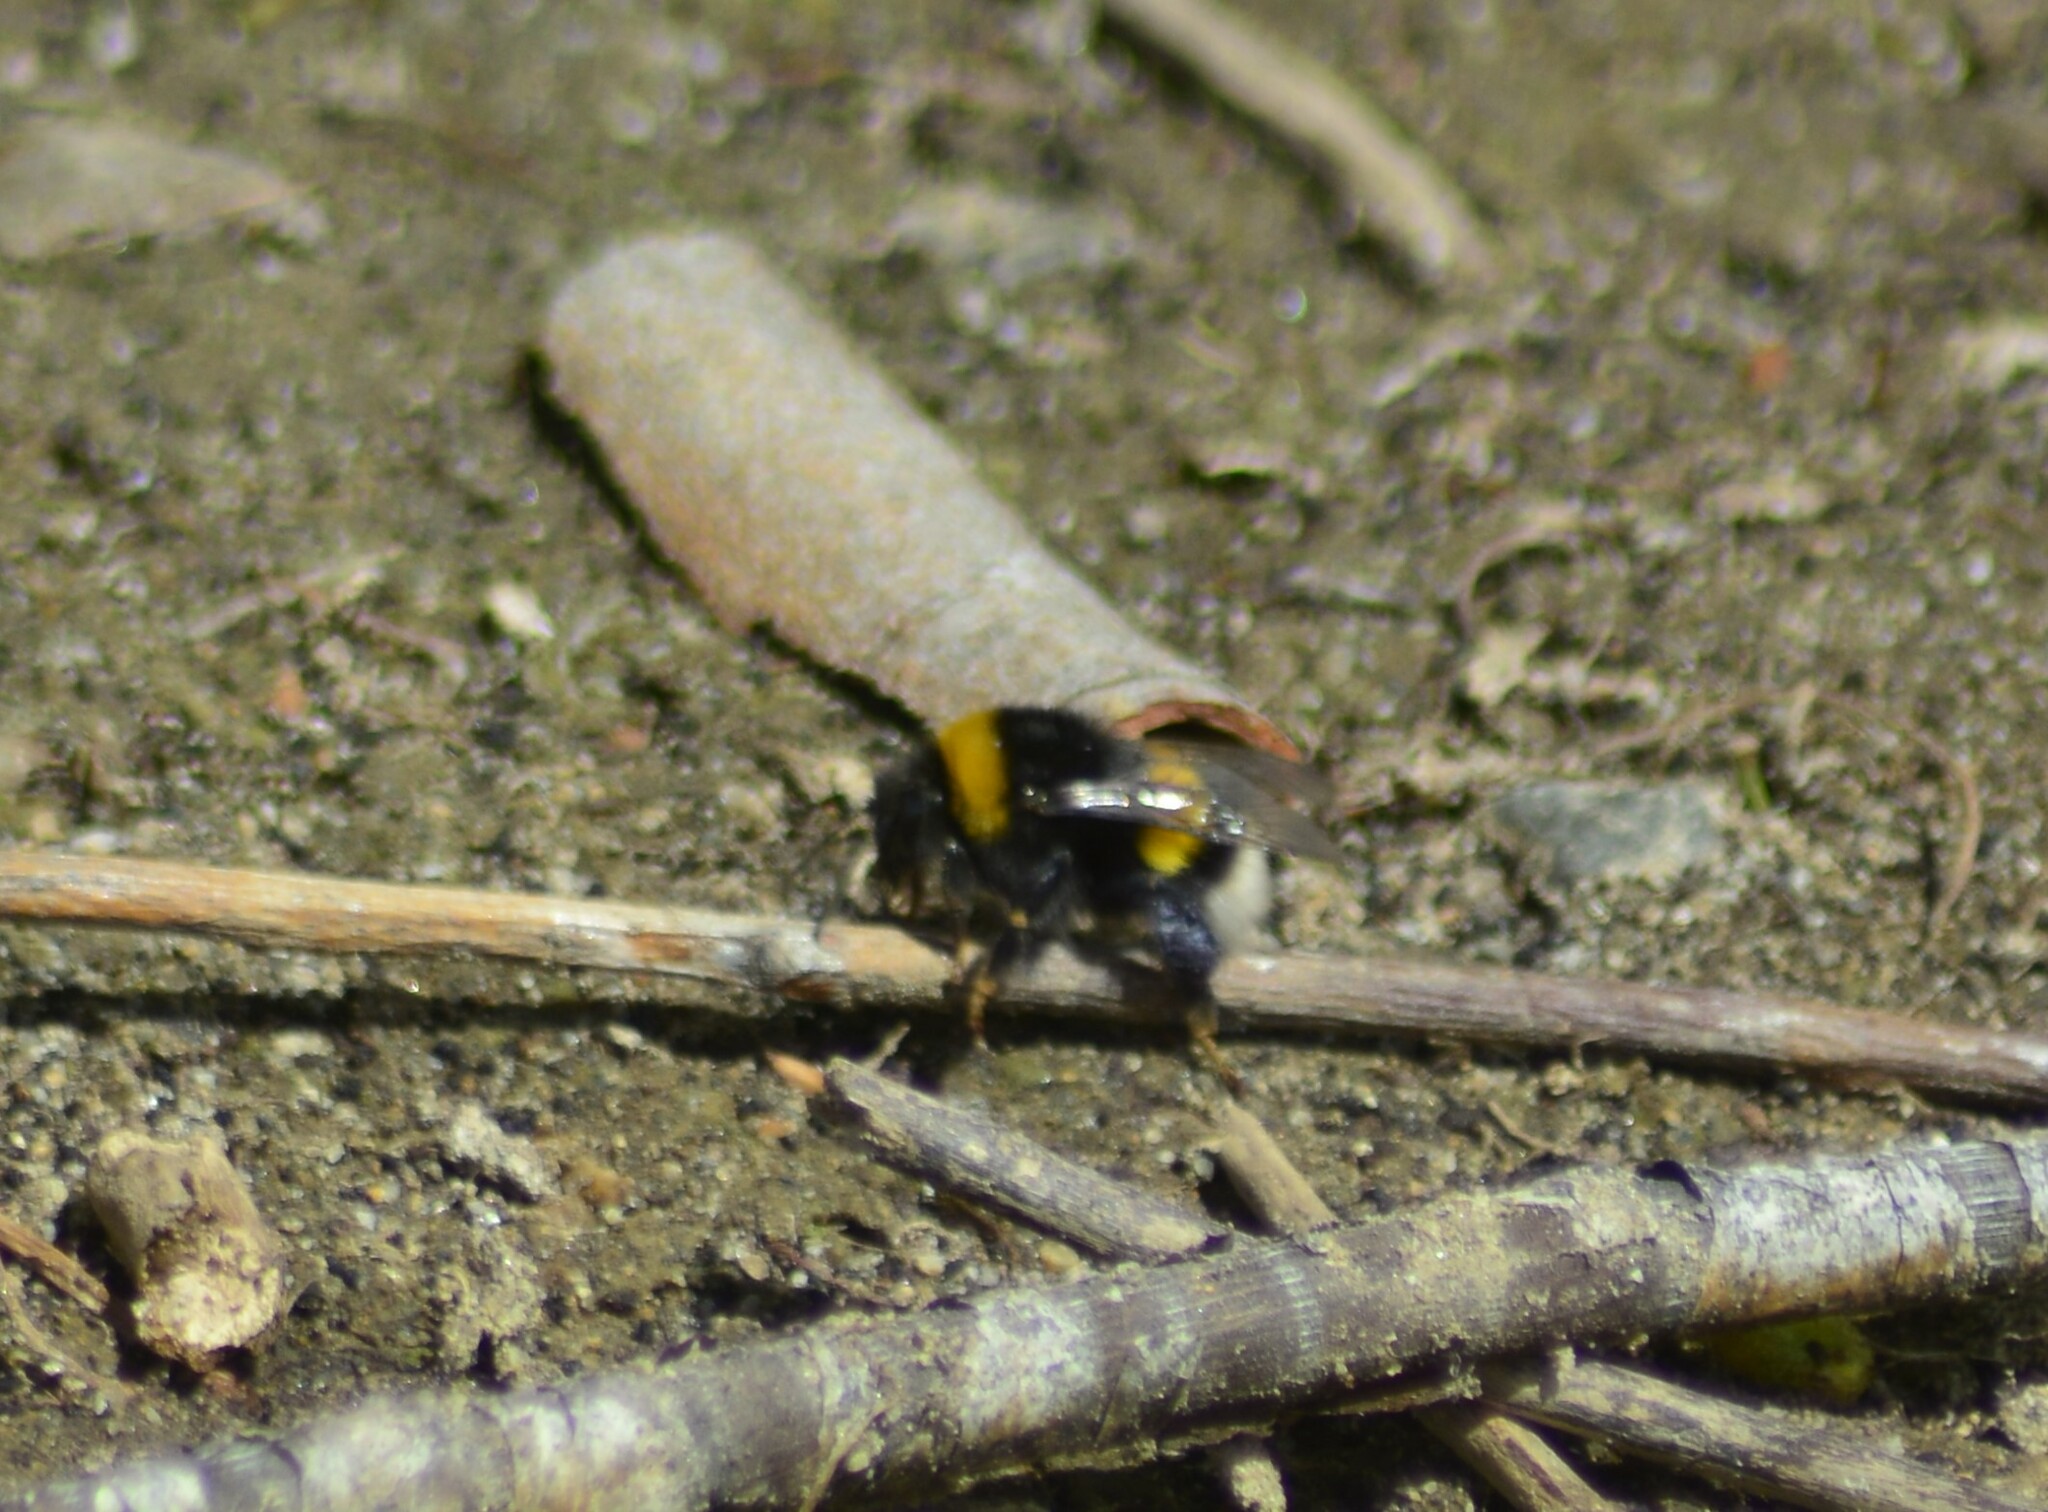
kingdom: Animalia
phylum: Arthropoda
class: Insecta
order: Hymenoptera
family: Apidae
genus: Bombus
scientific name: Bombus terrestris
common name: Buff-tailed bumblebee
